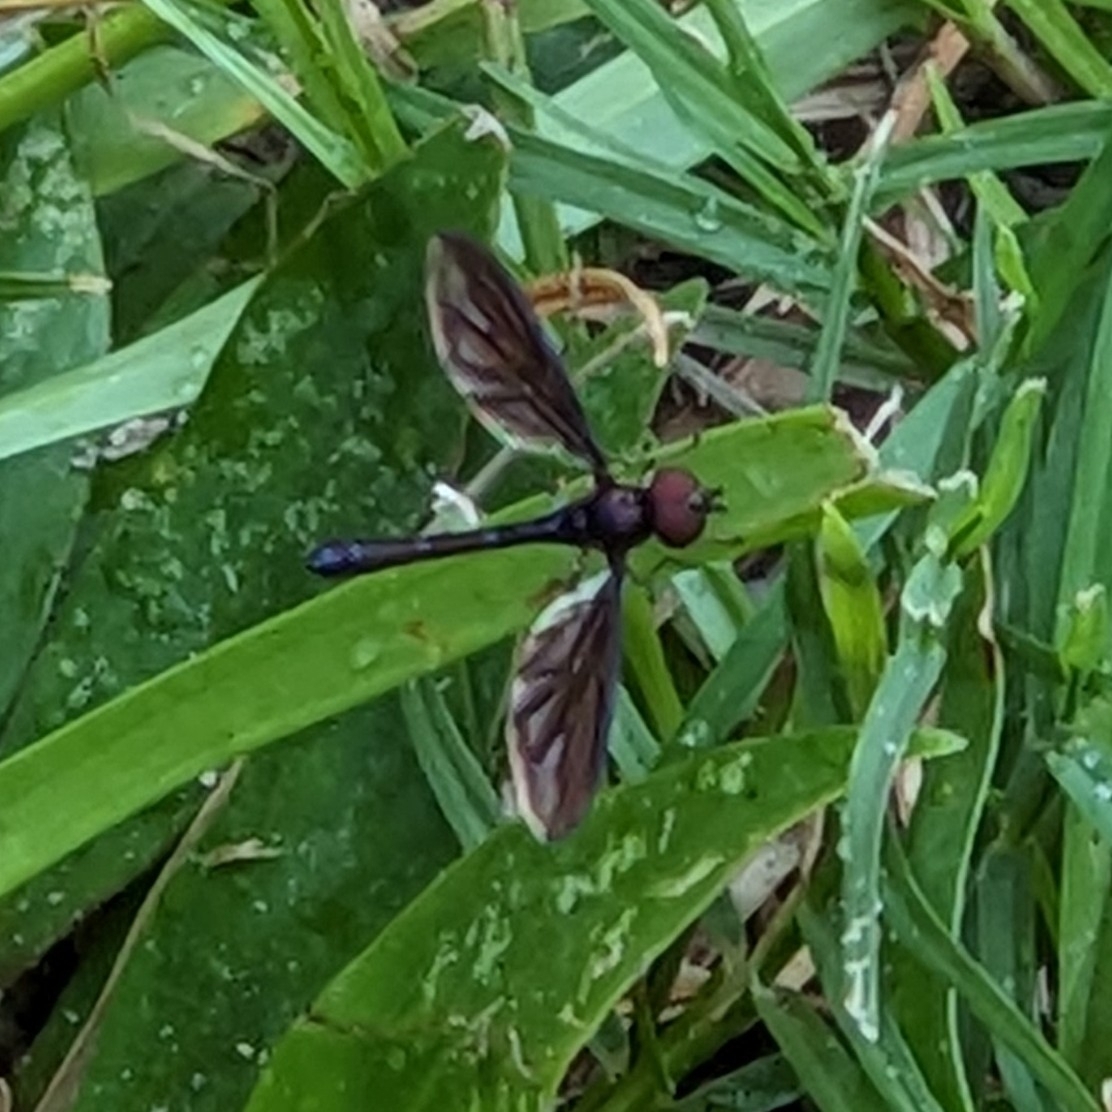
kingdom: Animalia
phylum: Arthropoda
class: Insecta
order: Diptera
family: Syrphidae
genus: Ocyptamus
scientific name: Ocyptamus fuscipennis
